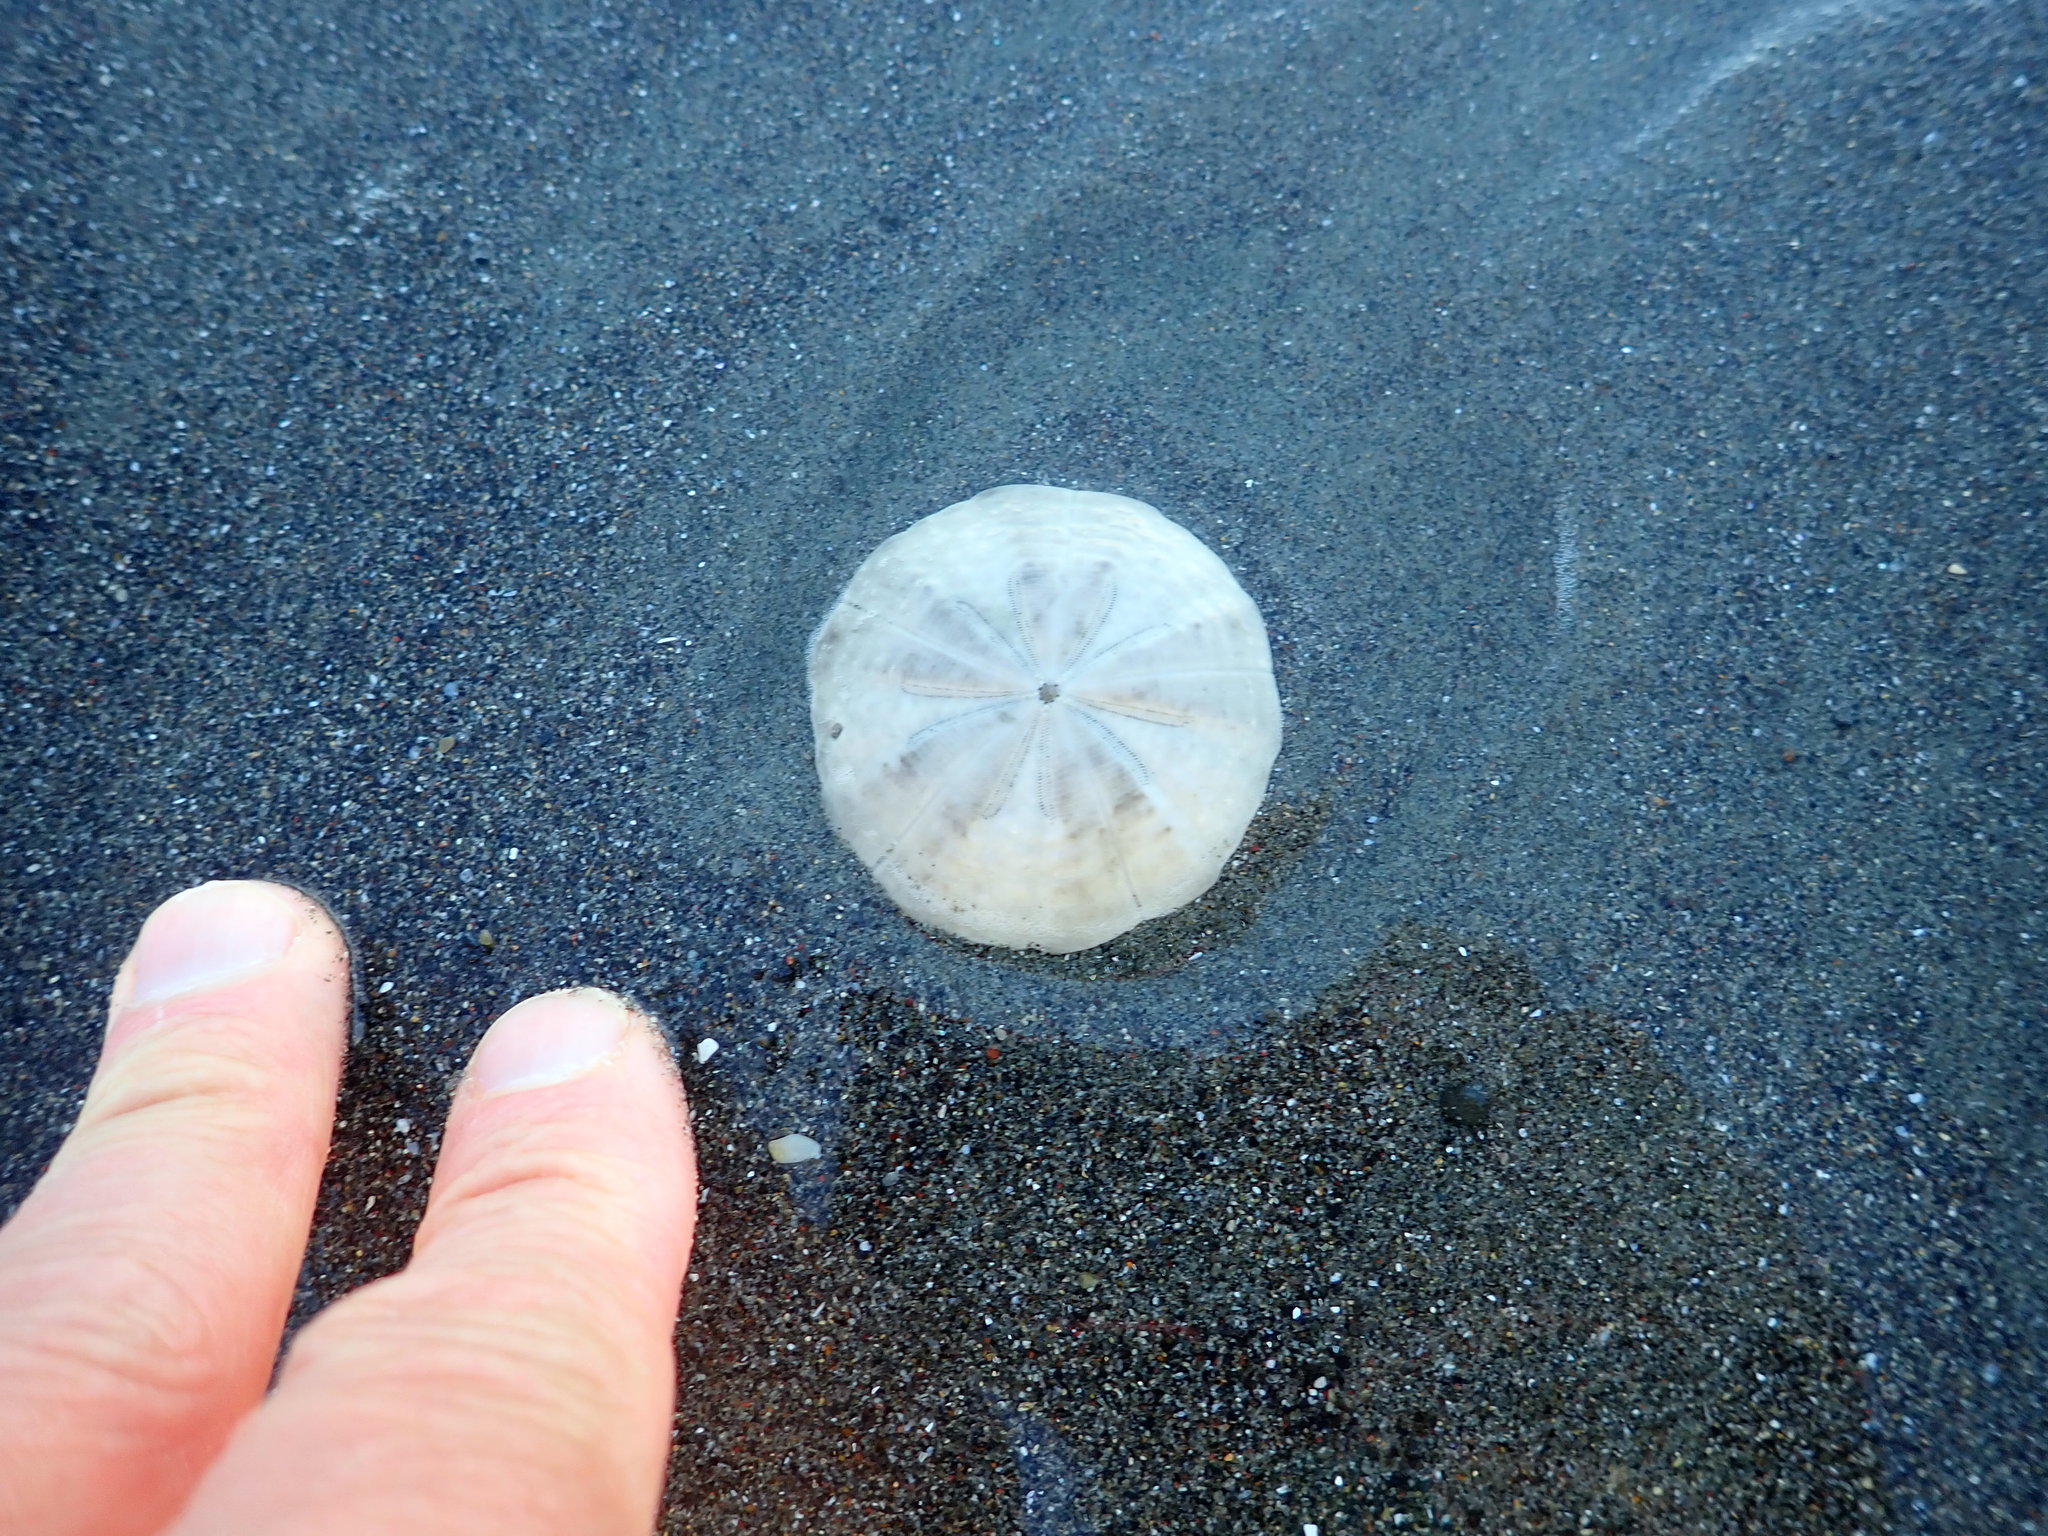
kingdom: Animalia
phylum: Echinodermata
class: Echinoidea
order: Clypeasteroida
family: Clypeasteridae
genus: Fellaster
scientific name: Fellaster zelandiae
